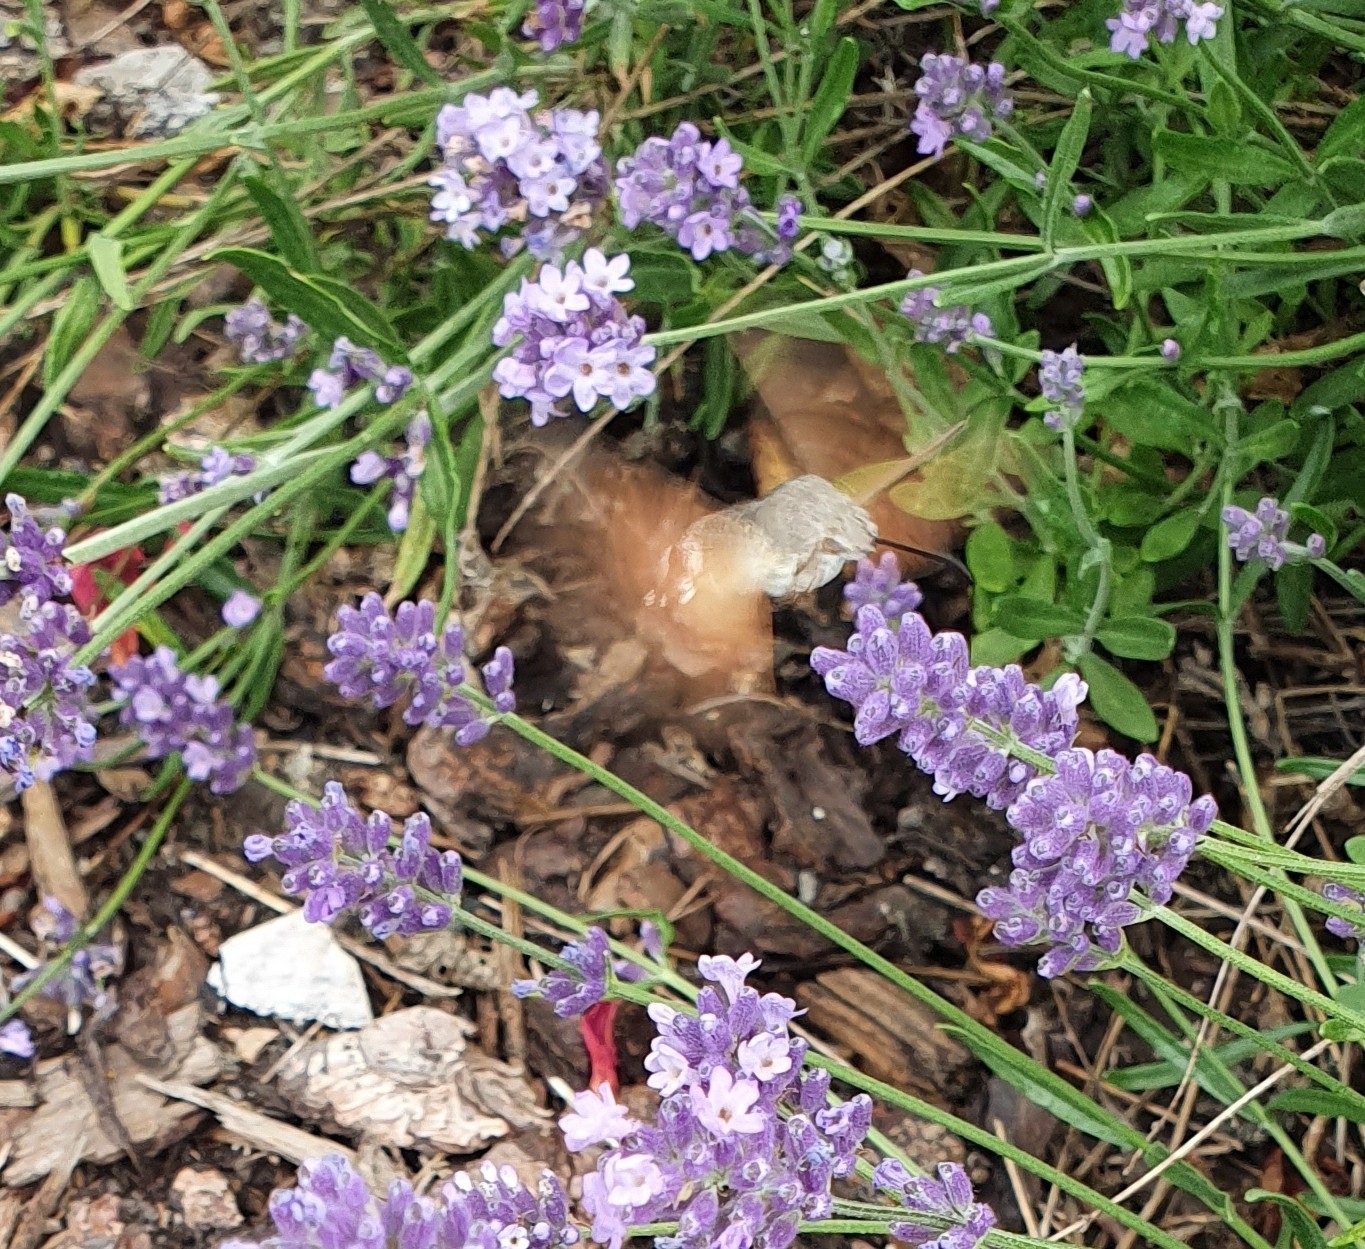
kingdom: Animalia
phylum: Arthropoda
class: Insecta
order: Lepidoptera
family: Sphingidae
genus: Macroglossum
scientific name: Macroglossum stellatarum
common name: Humming-bird hawk-moth
